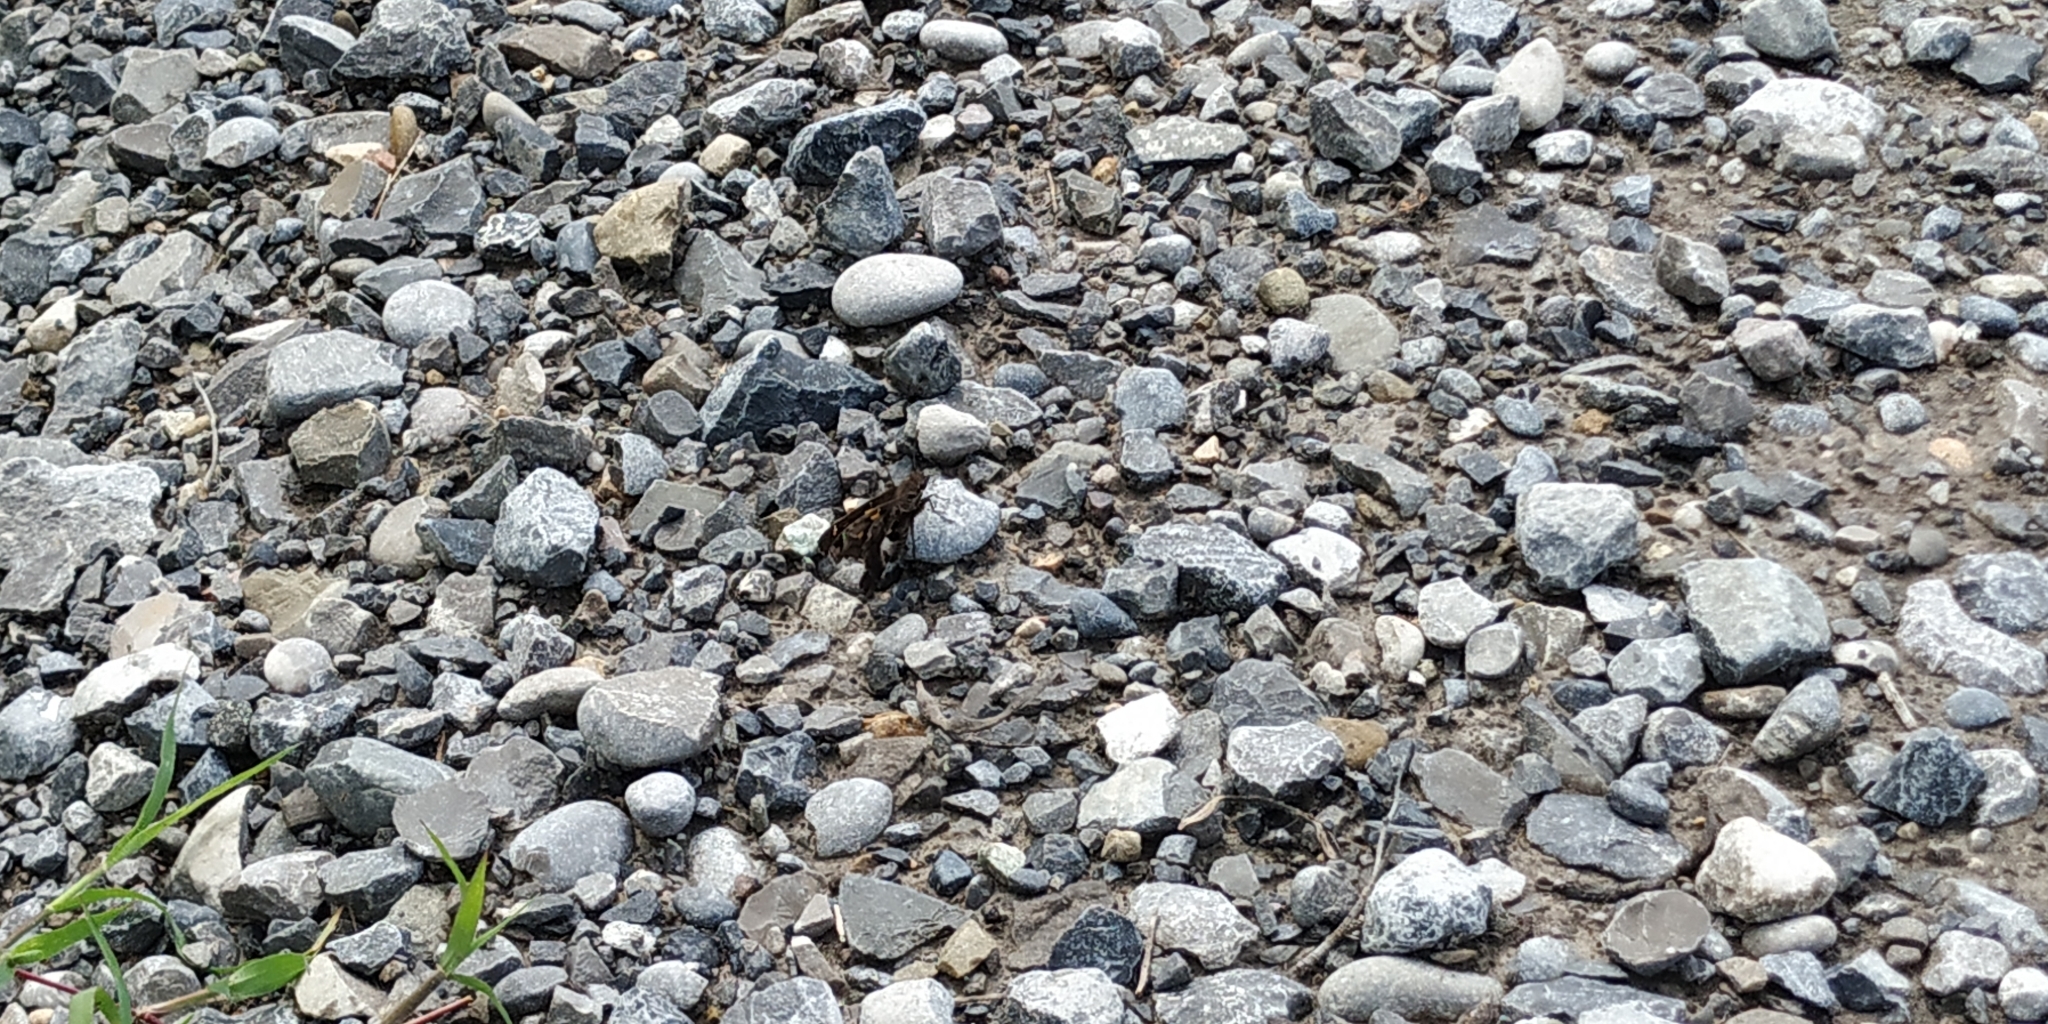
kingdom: Animalia
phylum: Arthropoda
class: Insecta
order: Lepidoptera
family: Hesperiidae
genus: Chioides
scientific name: Chioides zilpa
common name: Zilpa longtail
